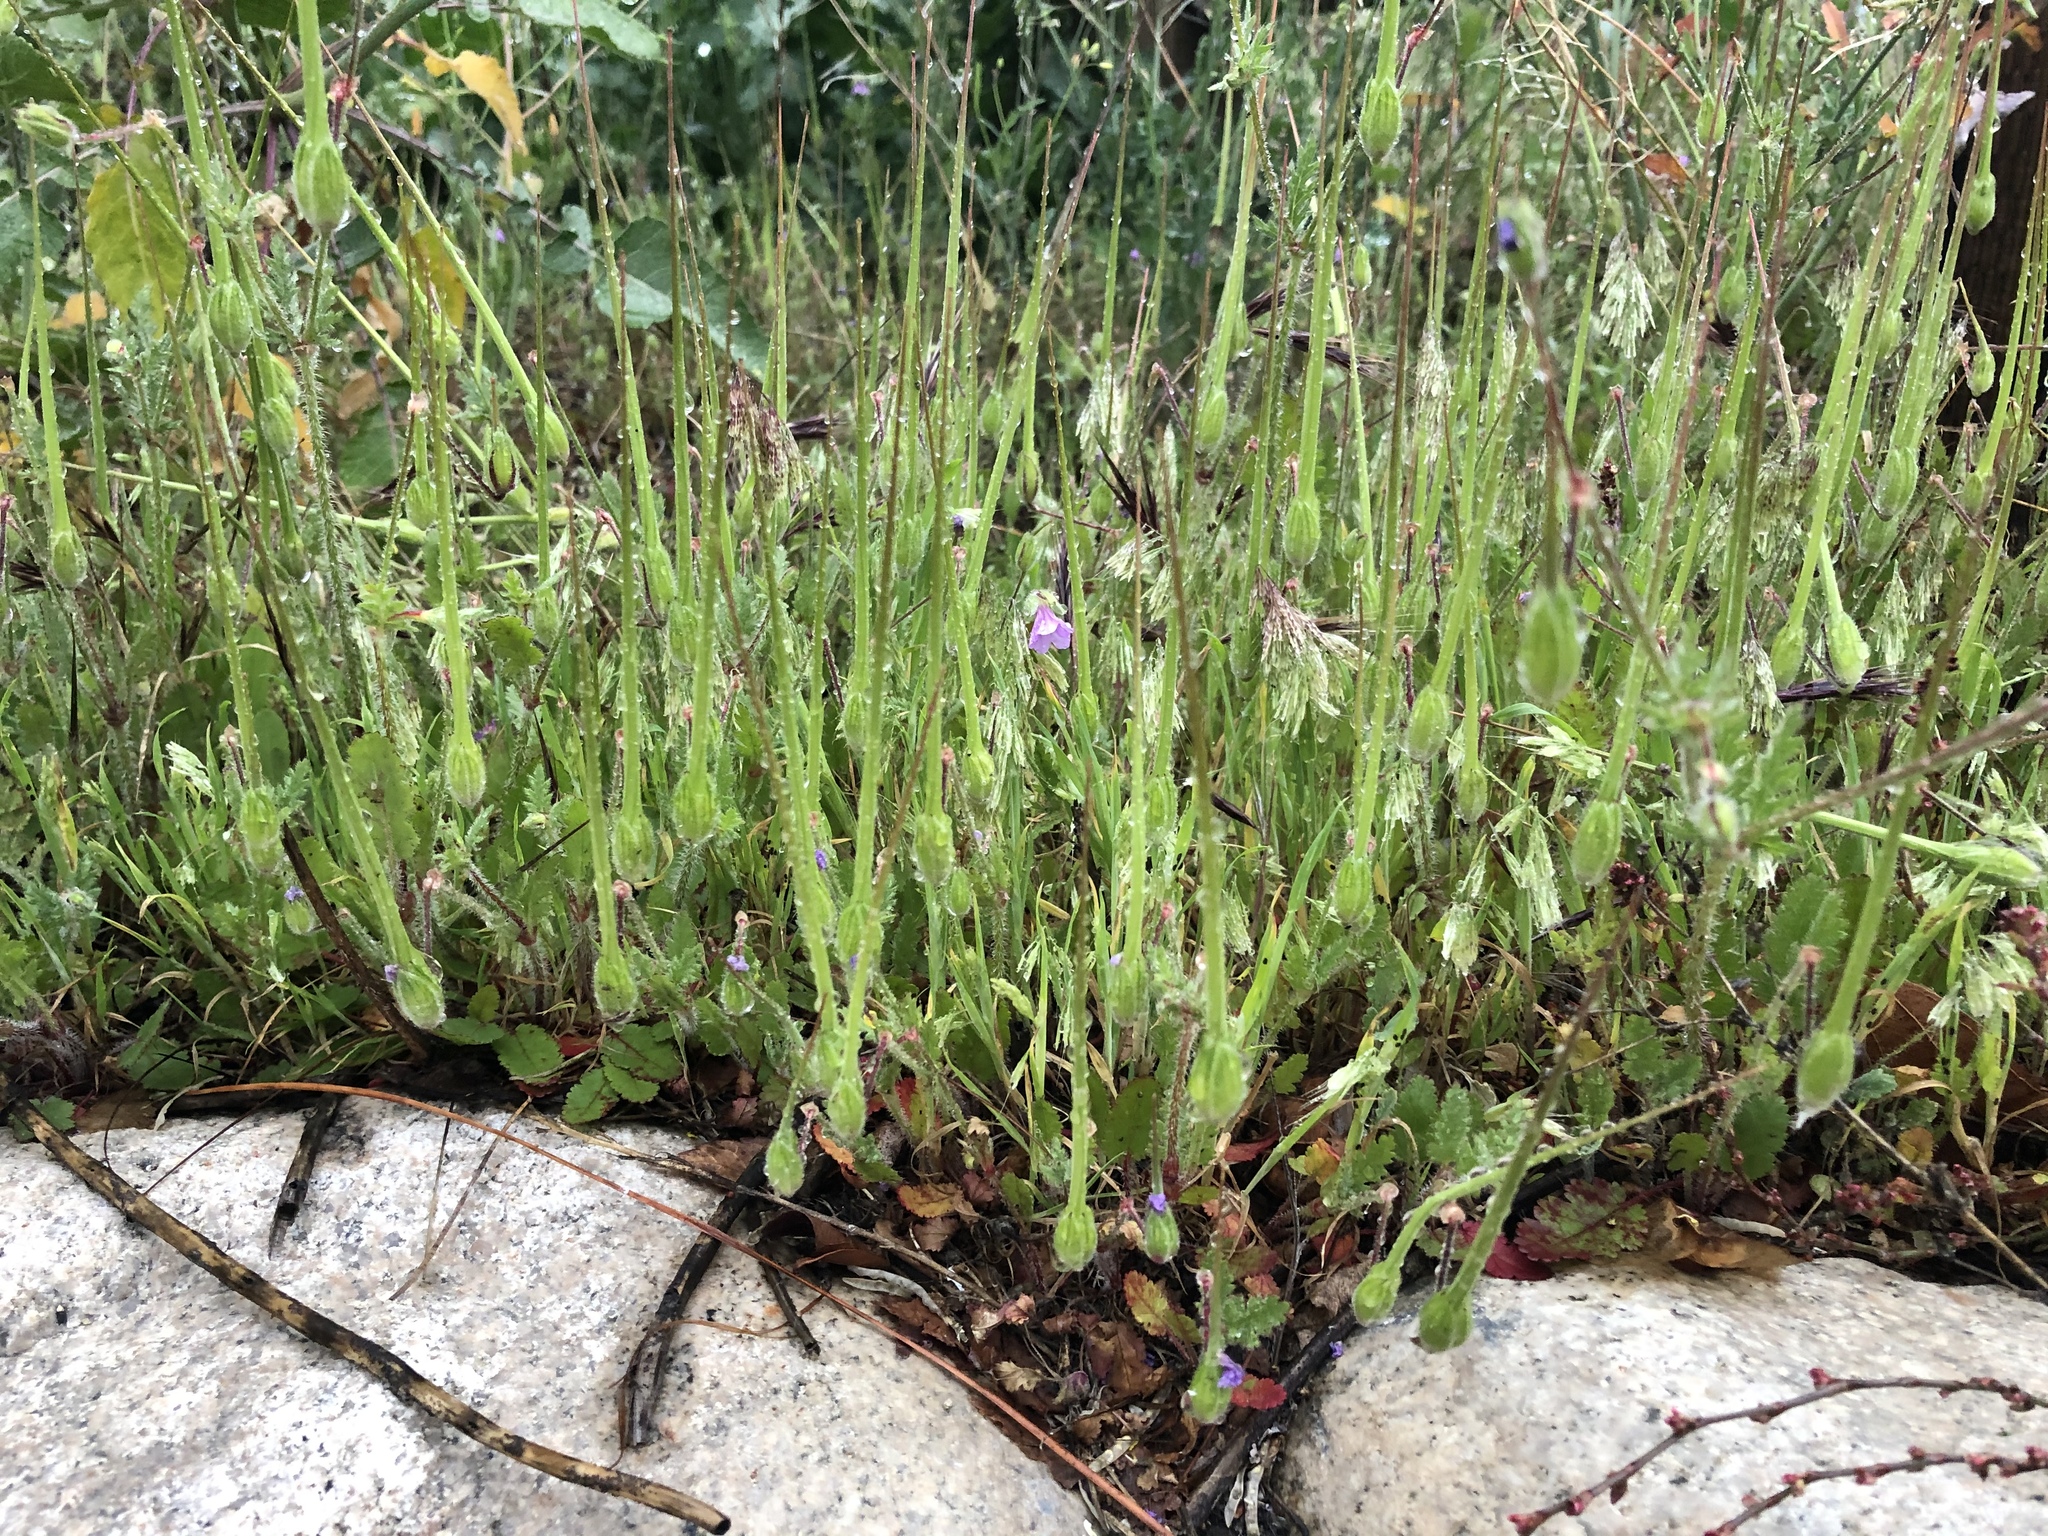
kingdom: Plantae
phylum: Tracheophyta
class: Magnoliopsida
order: Geraniales
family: Geraniaceae
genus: Erodium
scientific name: Erodium botrys
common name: Mediterranean stork's-bill
